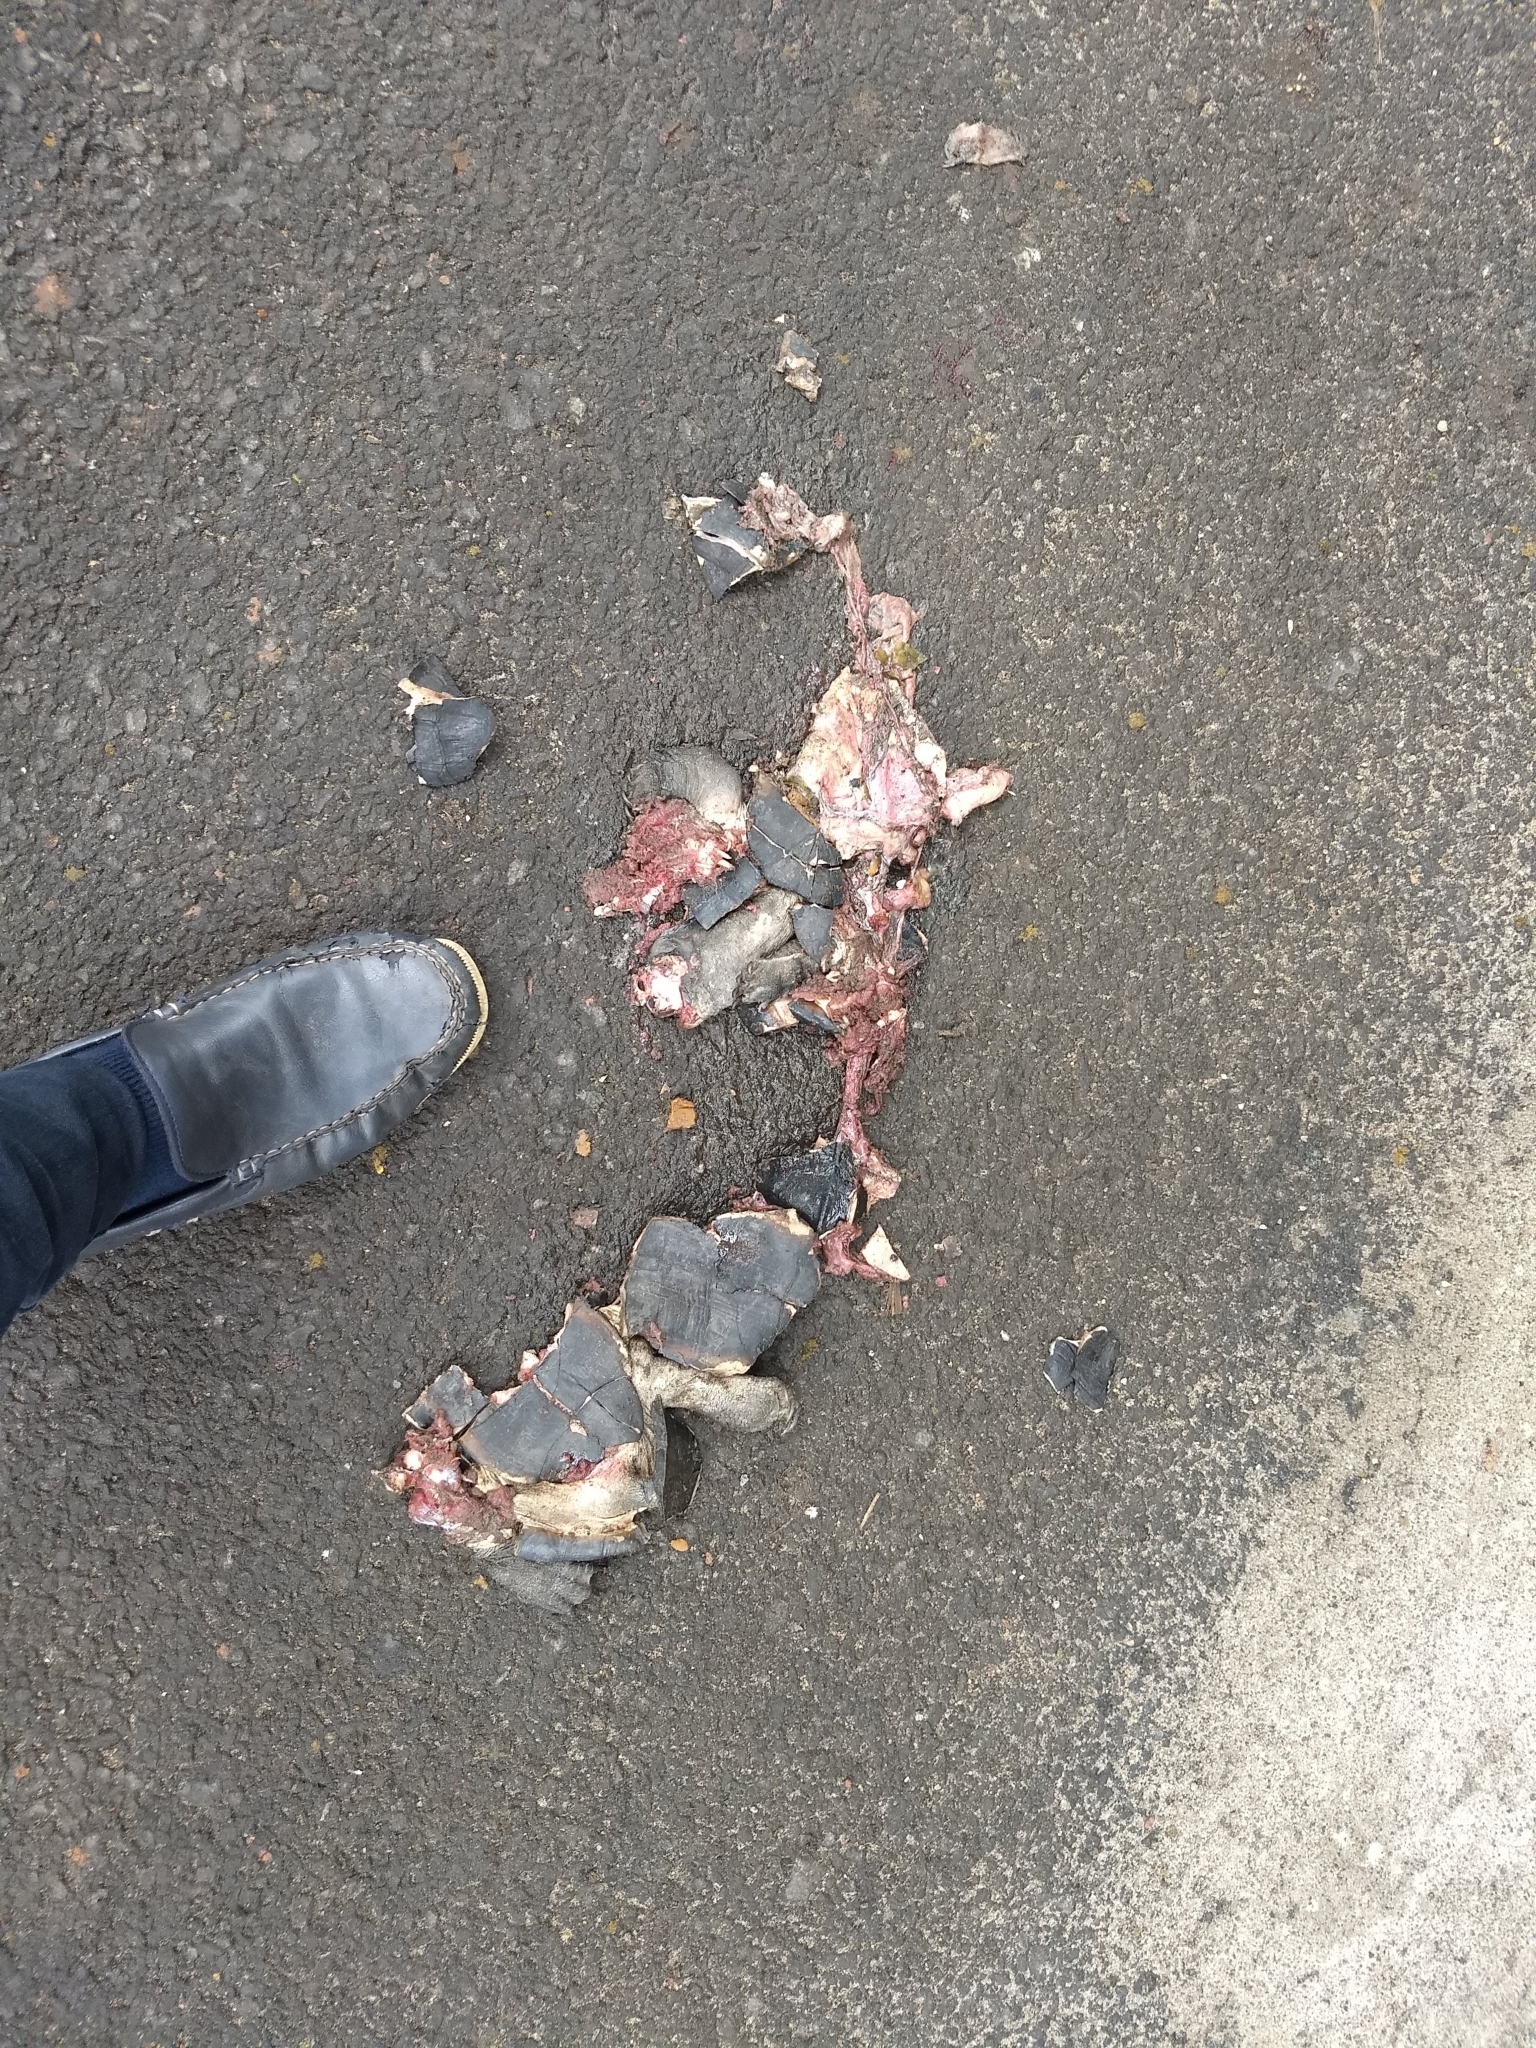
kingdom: Animalia
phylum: Chordata
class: Testudines
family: Geoemydidae
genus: Melanochelys
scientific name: Melanochelys trijuga
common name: Indian black turtle
